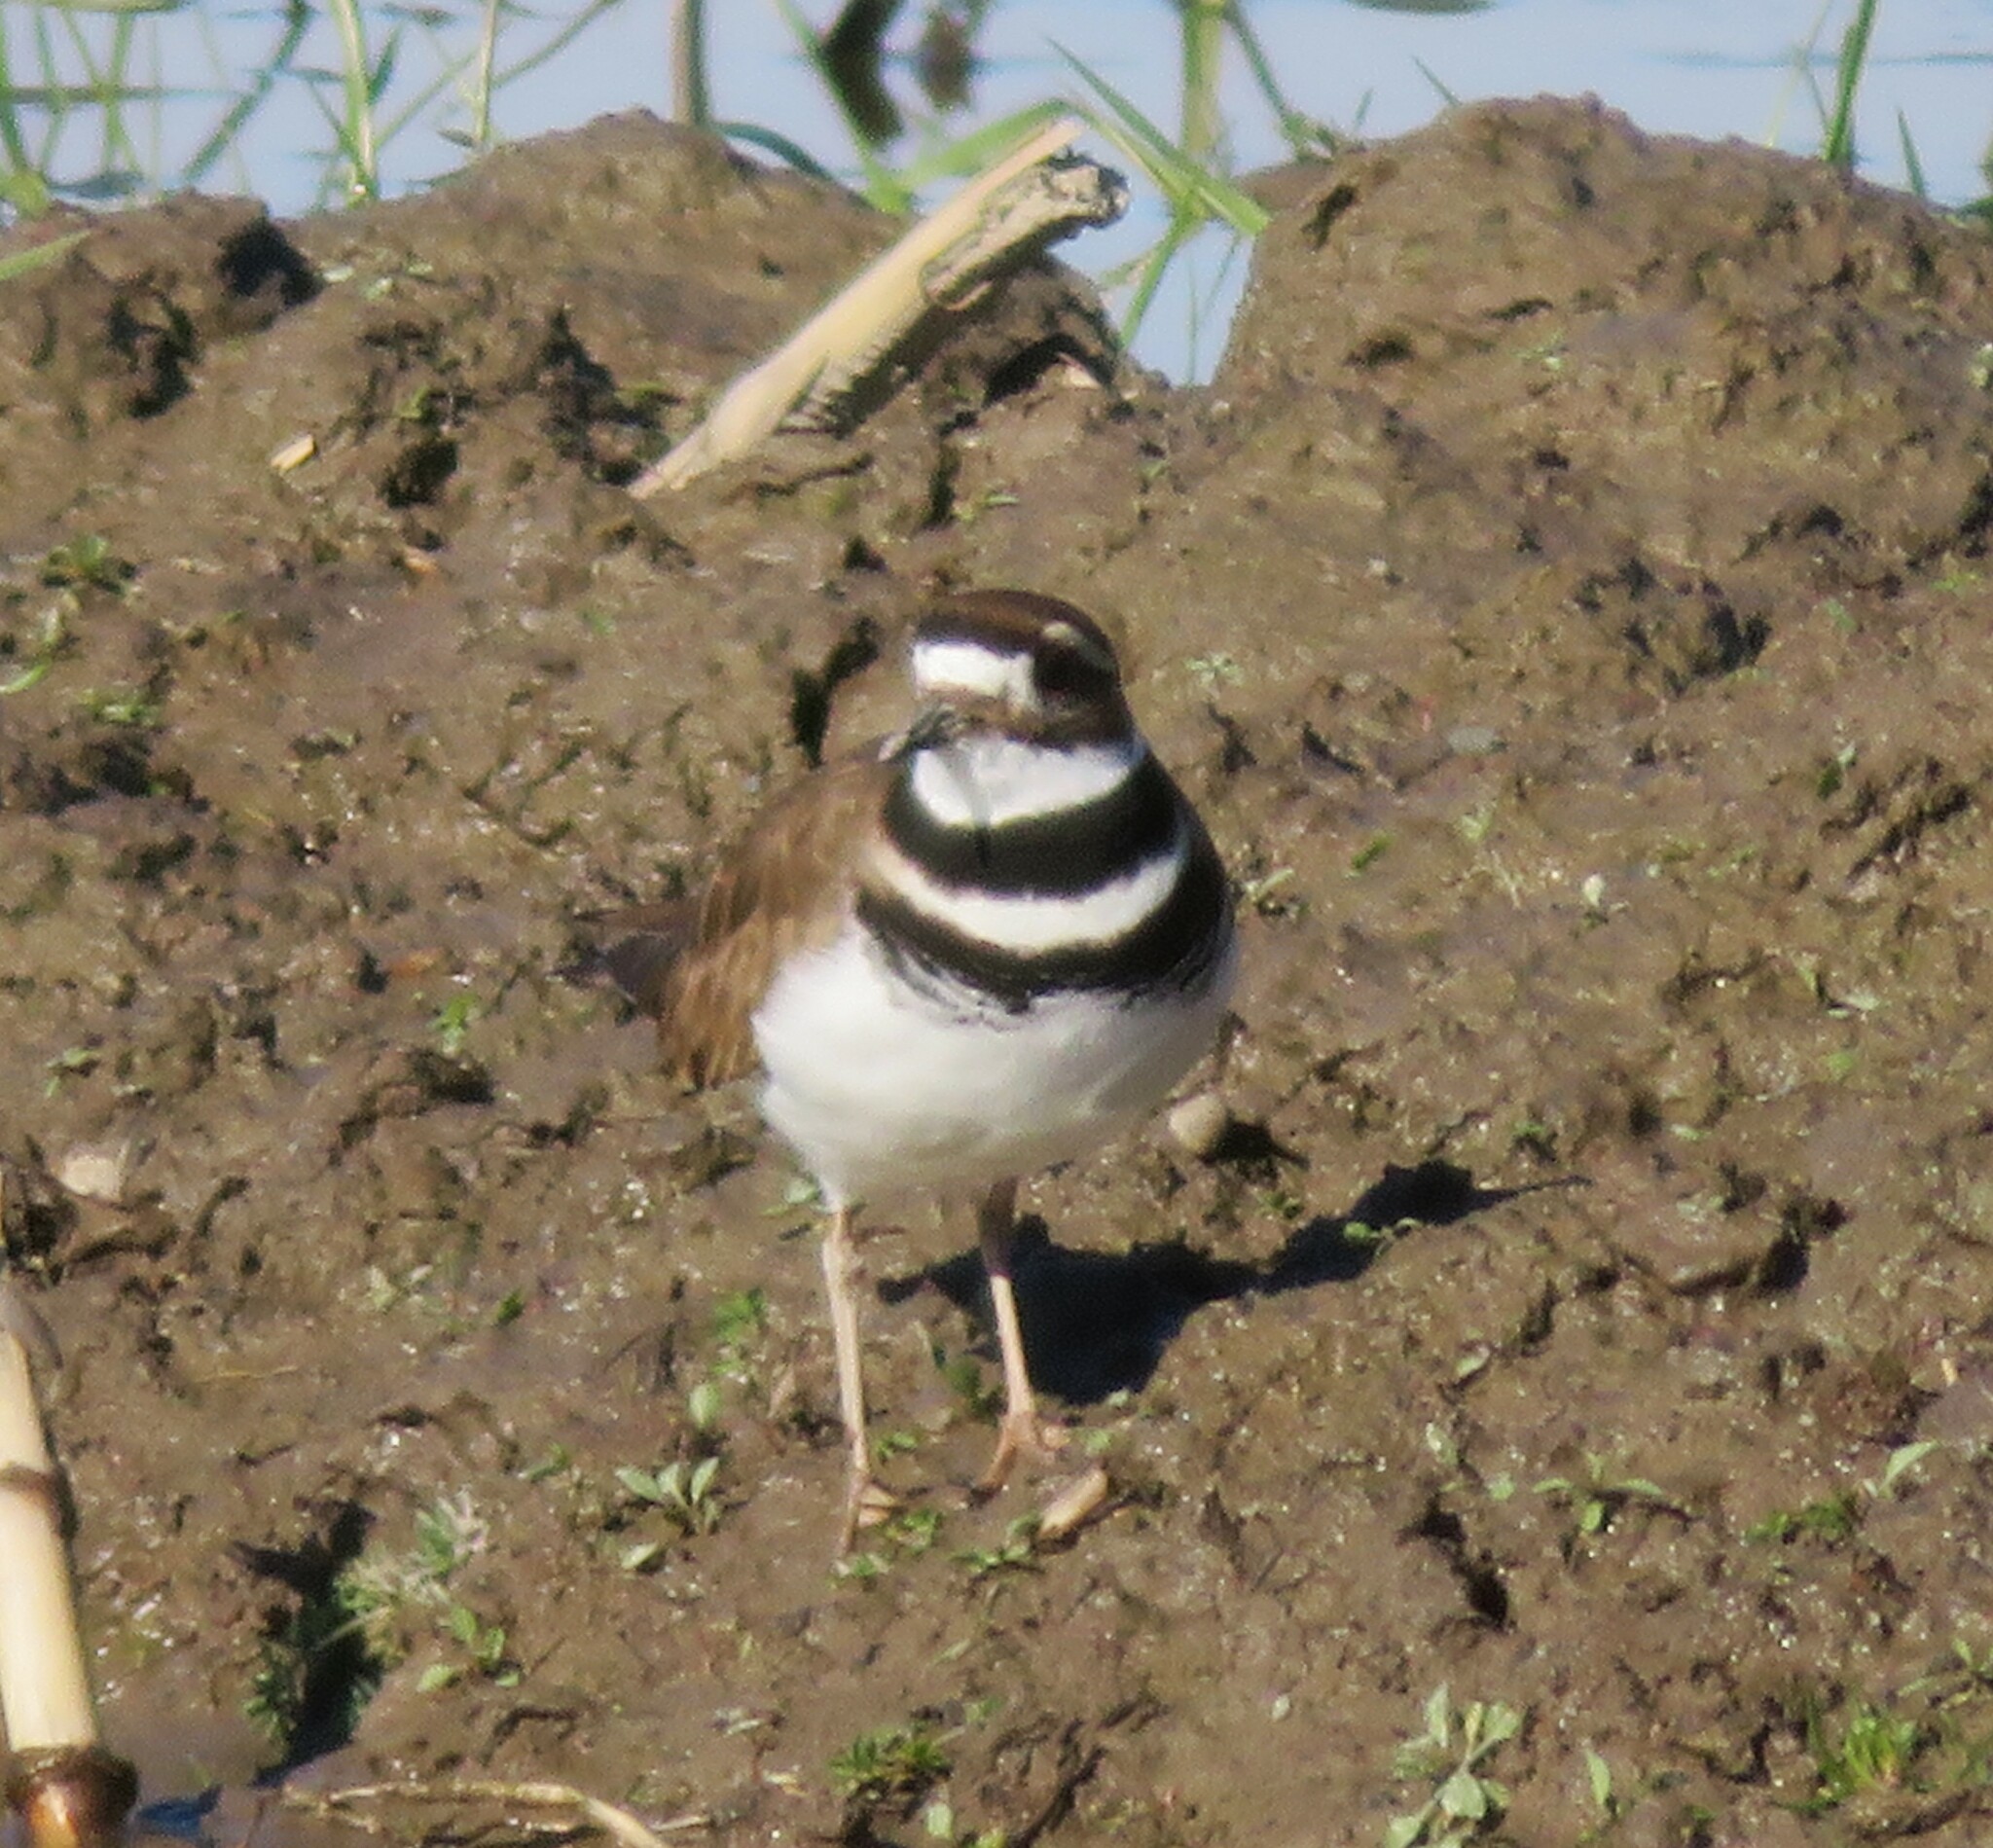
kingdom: Animalia
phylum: Chordata
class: Aves
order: Charadriiformes
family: Charadriidae
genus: Charadrius
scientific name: Charadrius vociferus
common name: Killdeer
